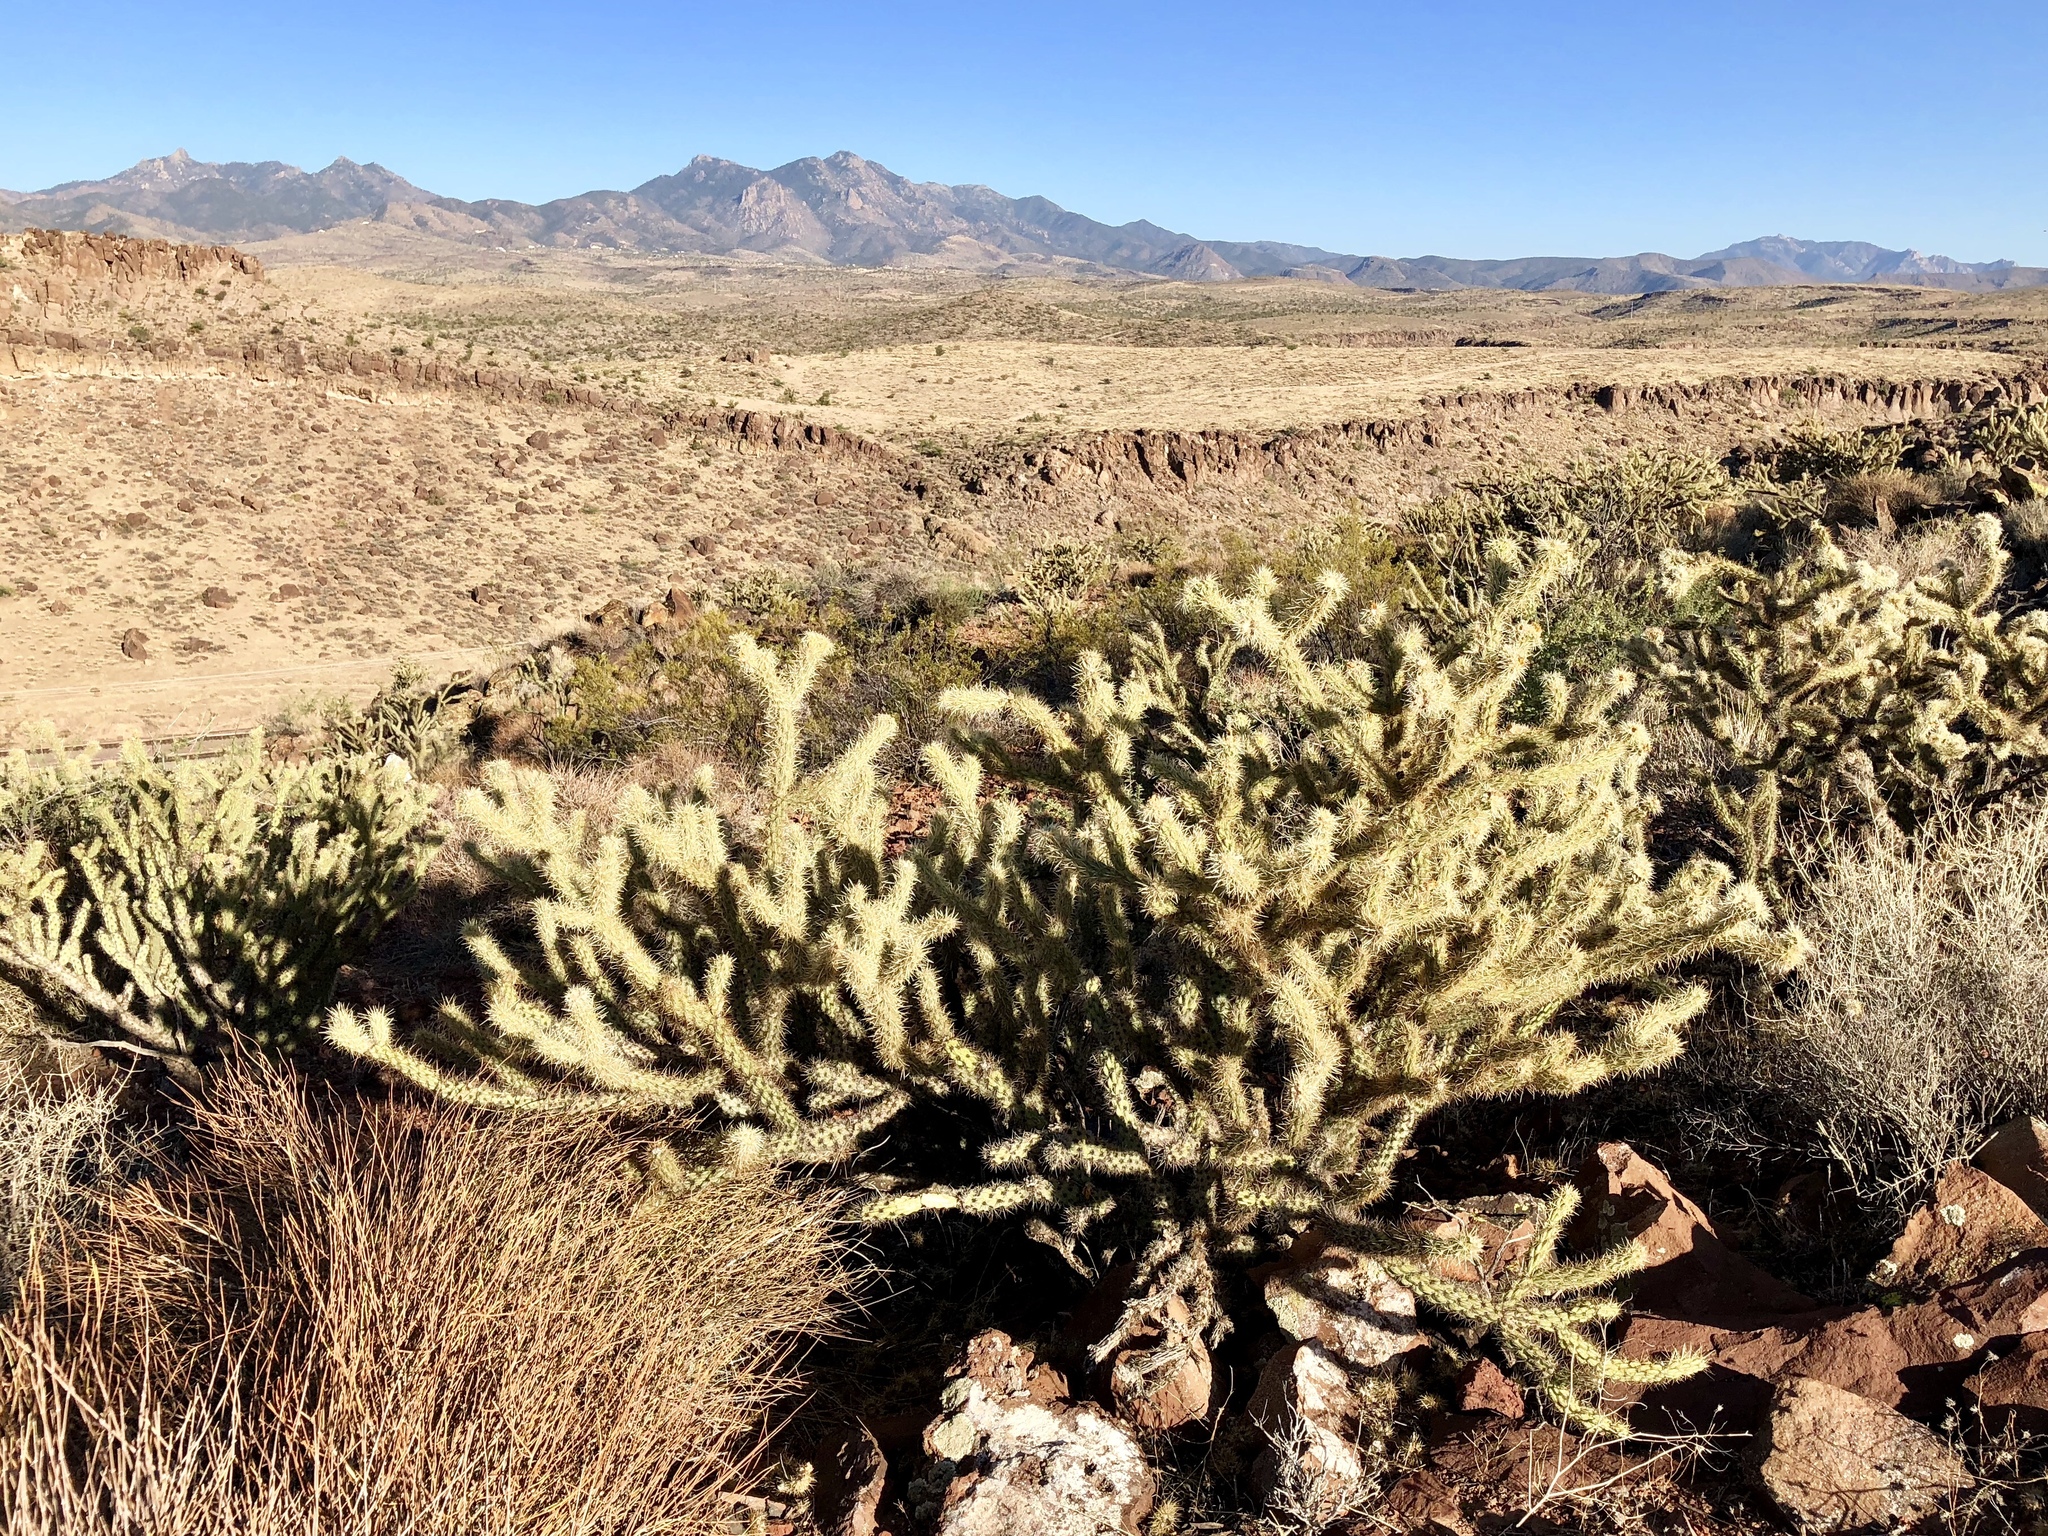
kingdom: Plantae
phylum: Tracheophyta
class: Magnoliopsida
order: Caryophyllales
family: Cactaceae
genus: Cylindropuntia
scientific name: Cylindropuntia acanthocarpa
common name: Buckhorn cholla
